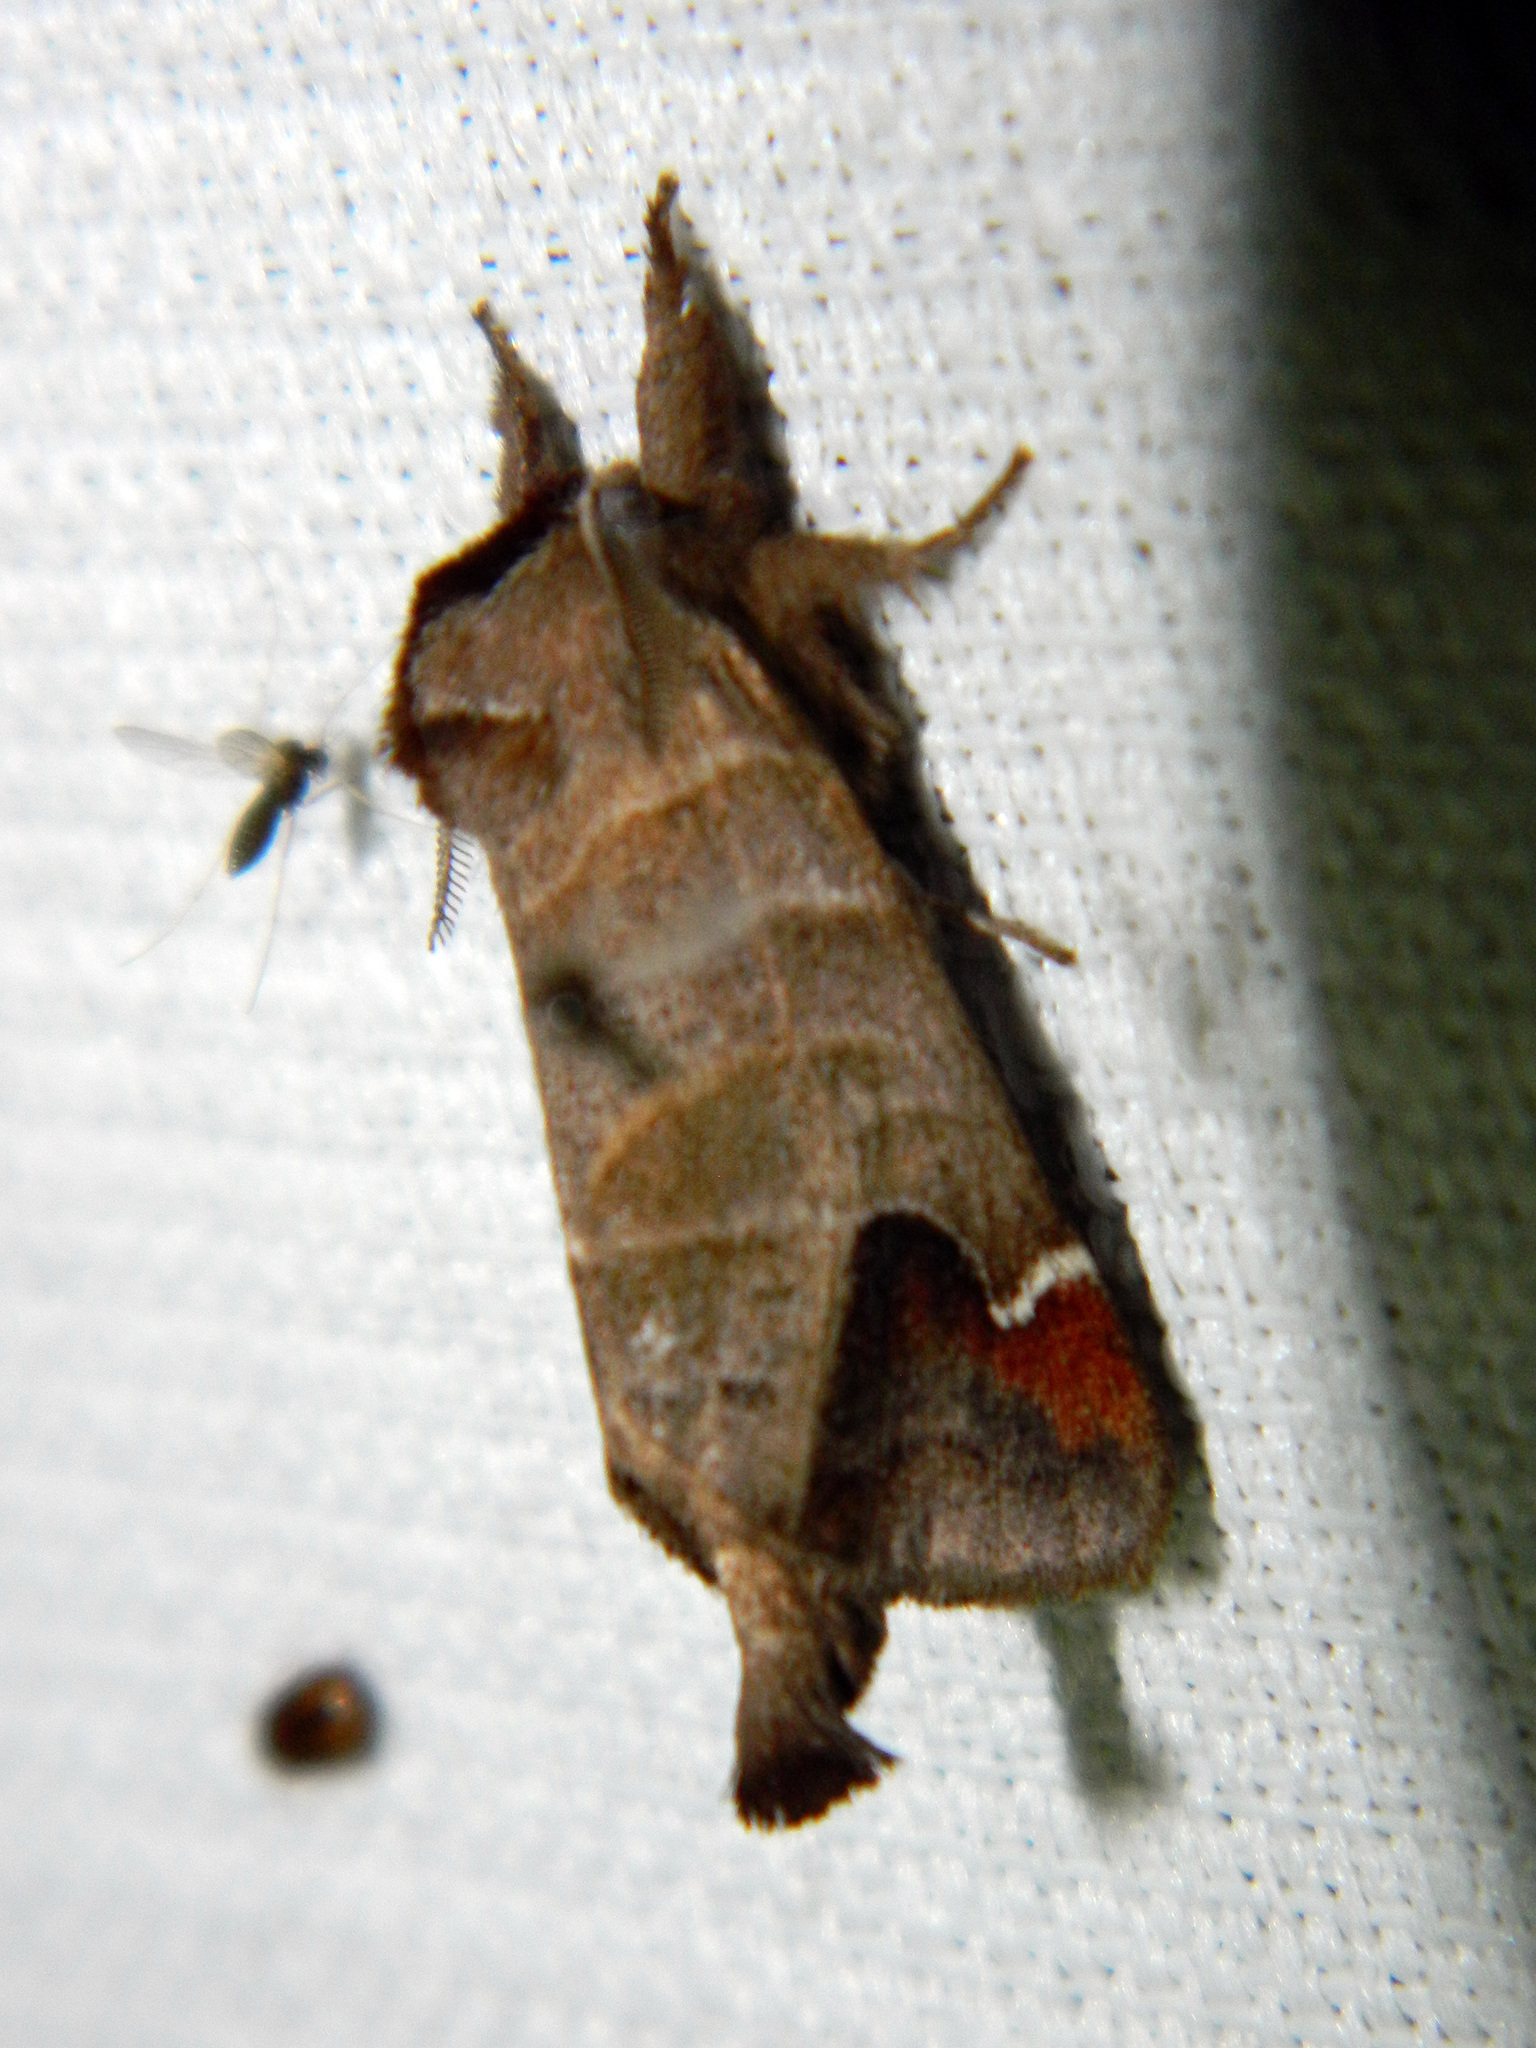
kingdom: Animalia
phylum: Arthropoda
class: Insecta
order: Lepidoptera
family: Notodontidae
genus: Clostera
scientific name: Clostera albosigma
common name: Sigmoid prominent
